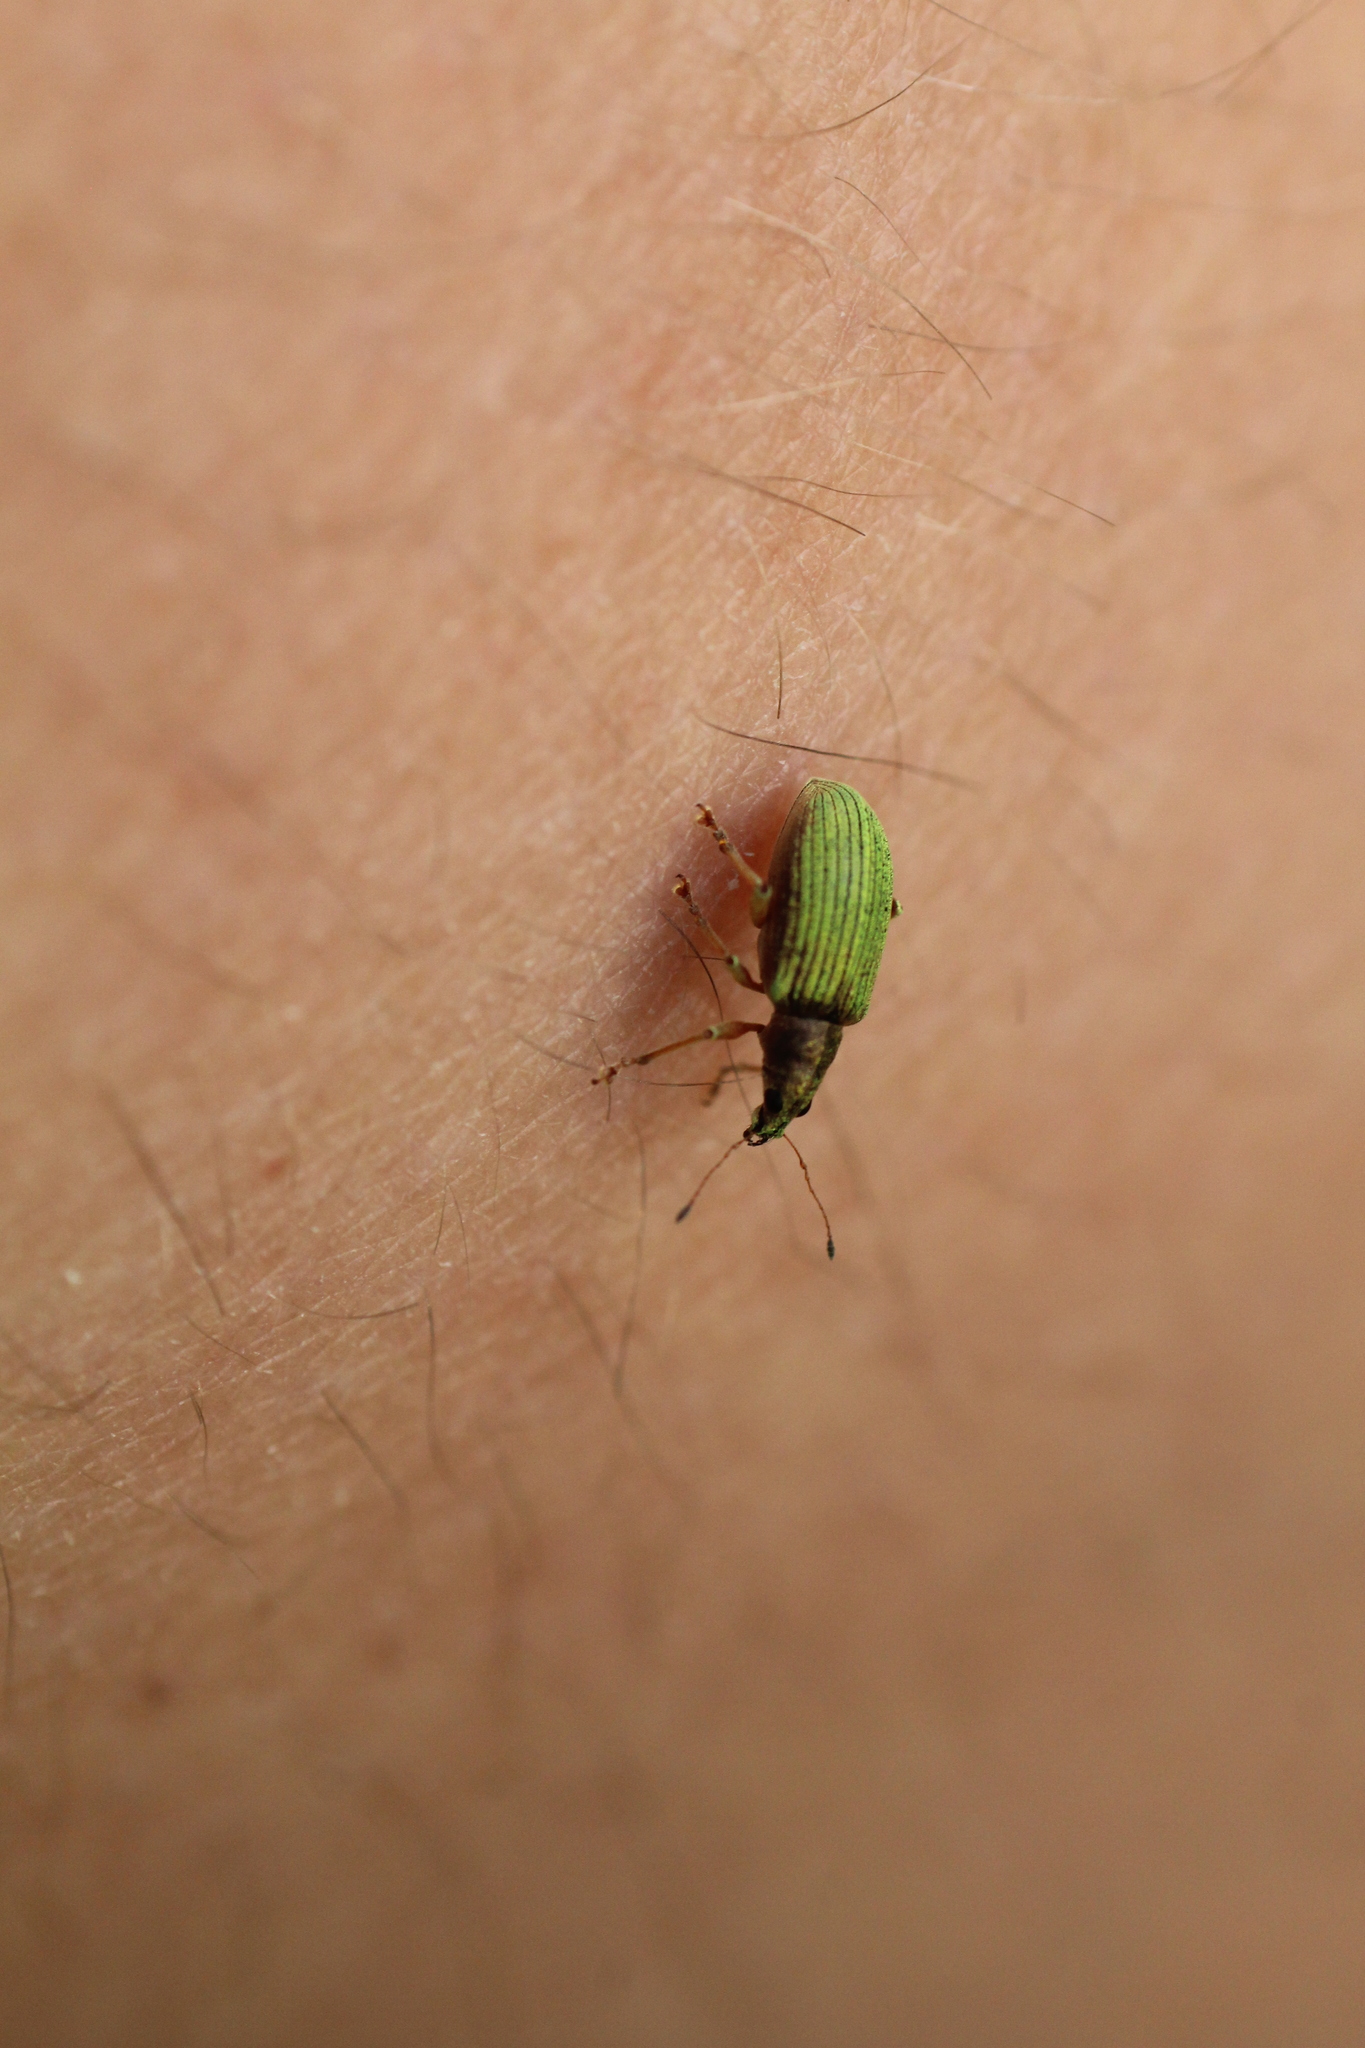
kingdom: Animalia
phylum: Arthropoda
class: Insecta
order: Coleoptera
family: Curculionidae
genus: Polydrusus
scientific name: Polydrusus formosus
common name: Weevil
